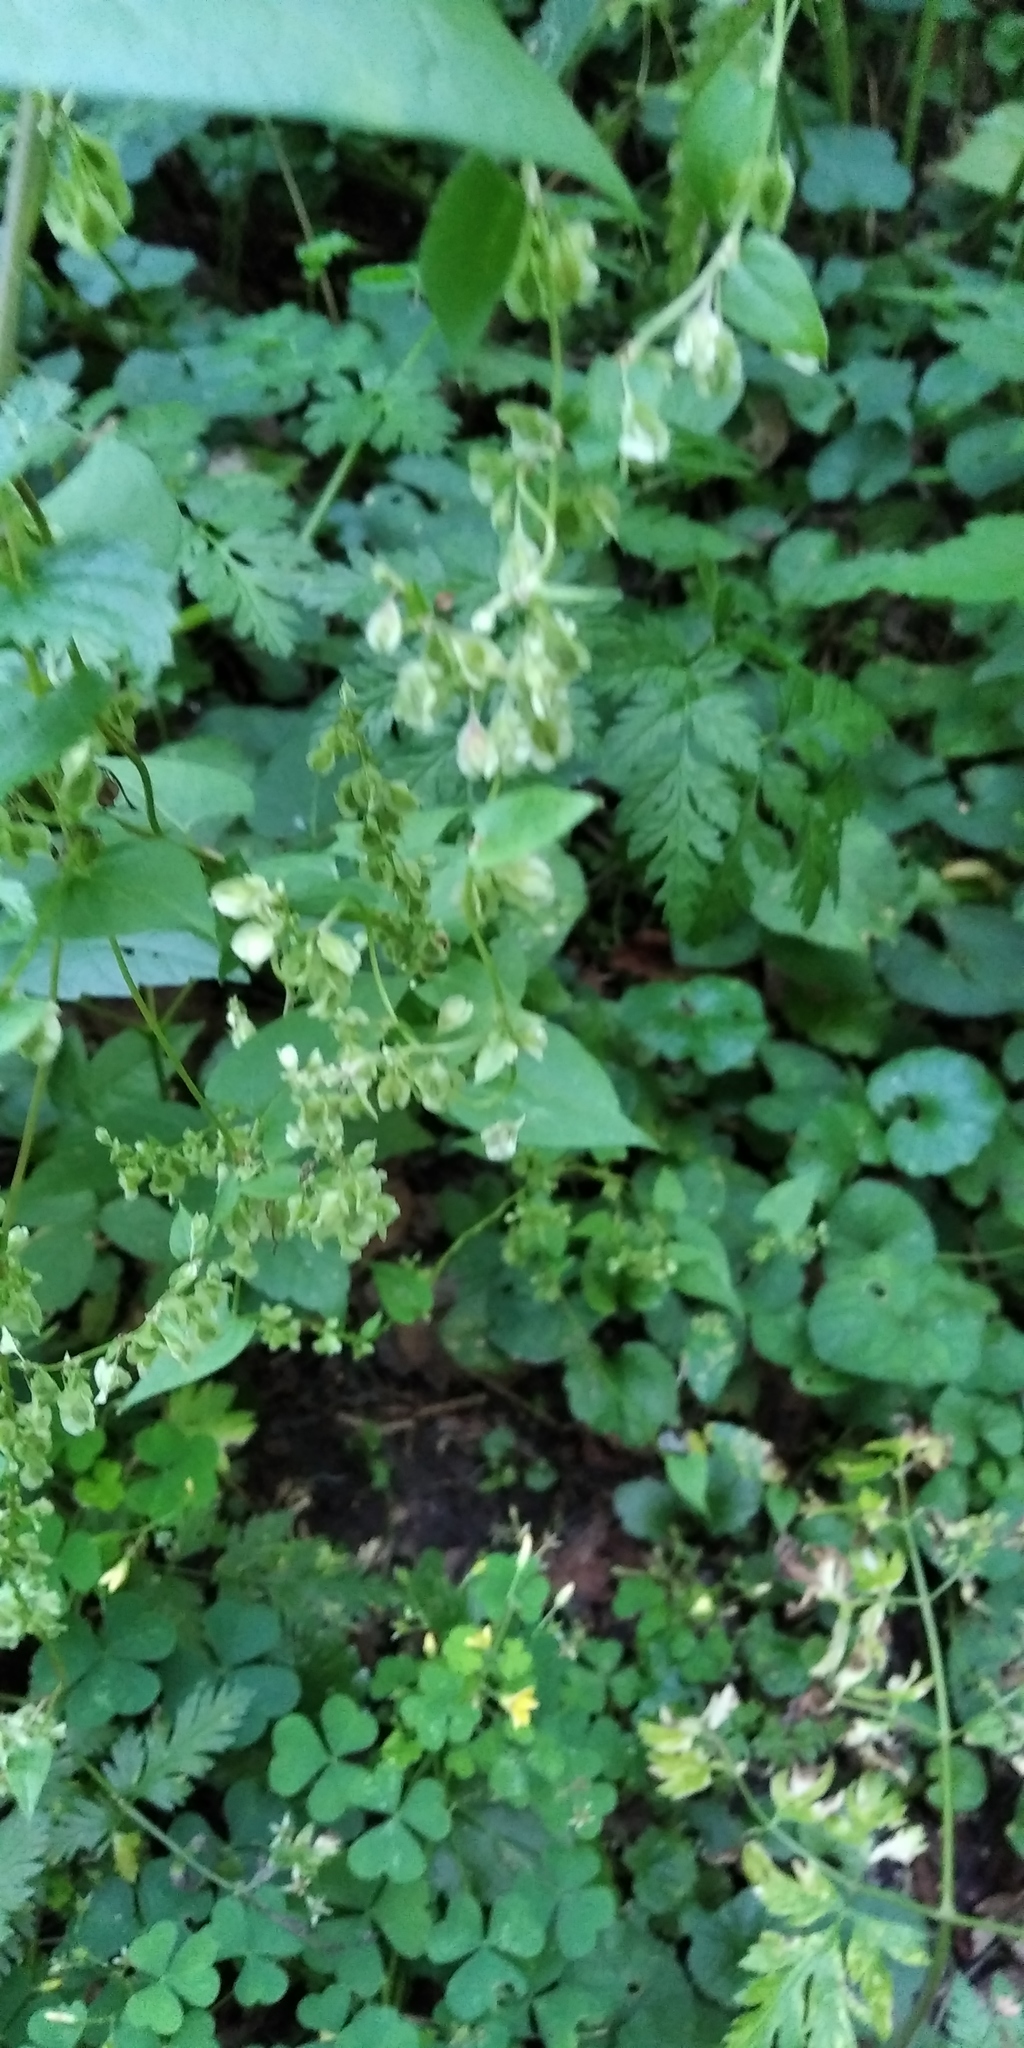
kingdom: Plantae
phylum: Tracheophyta
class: Magnoliopsida
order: Caryophyllales
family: Polygonaceae
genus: Fallopia
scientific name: Fallopia dumetorum
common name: Copse-bindweed
